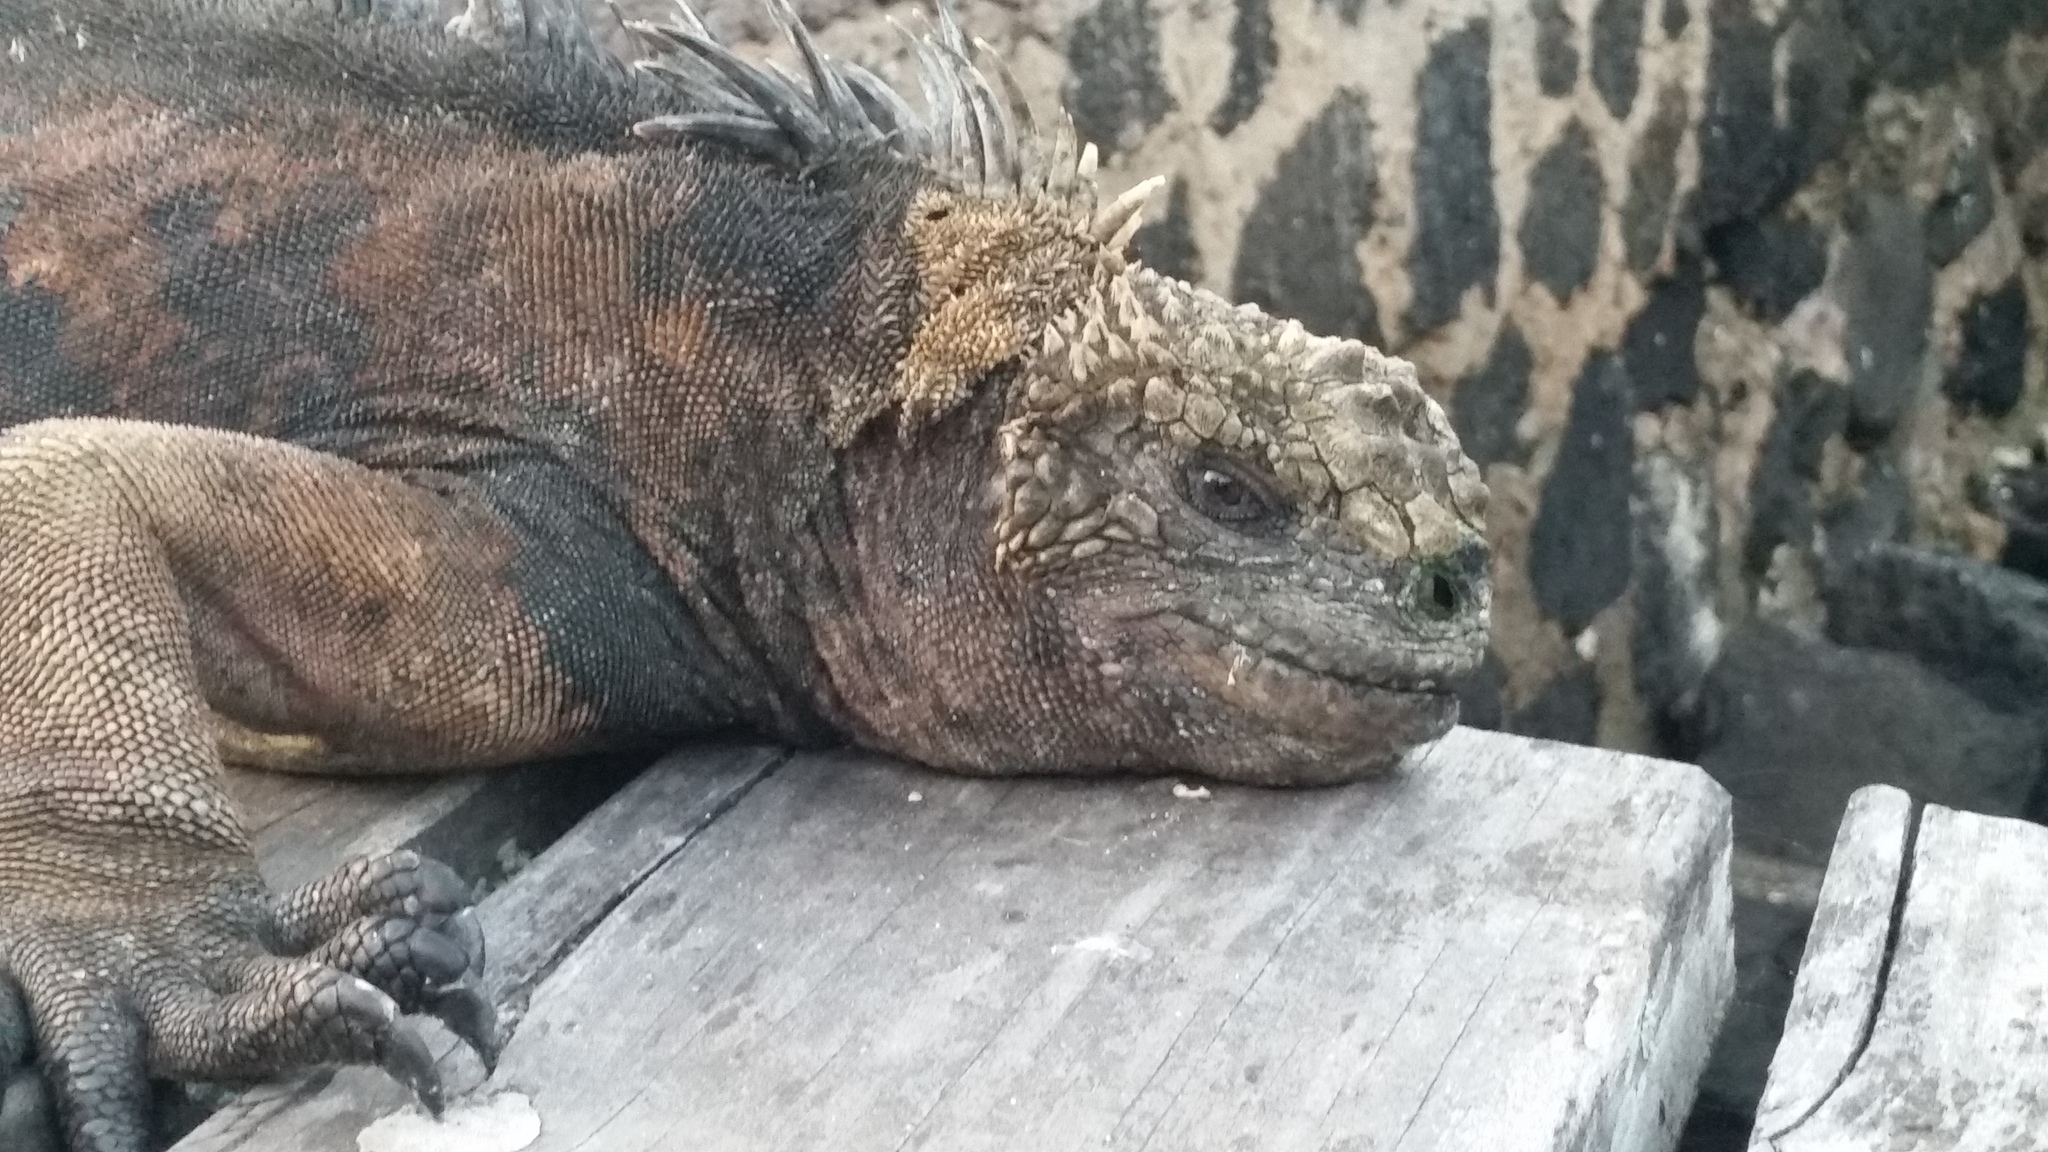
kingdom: Animalia
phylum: Chordata
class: Squamata
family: Iguanidae
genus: Amblyrhynchus
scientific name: Amblyrhynchus cristatus
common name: Marine iguana
